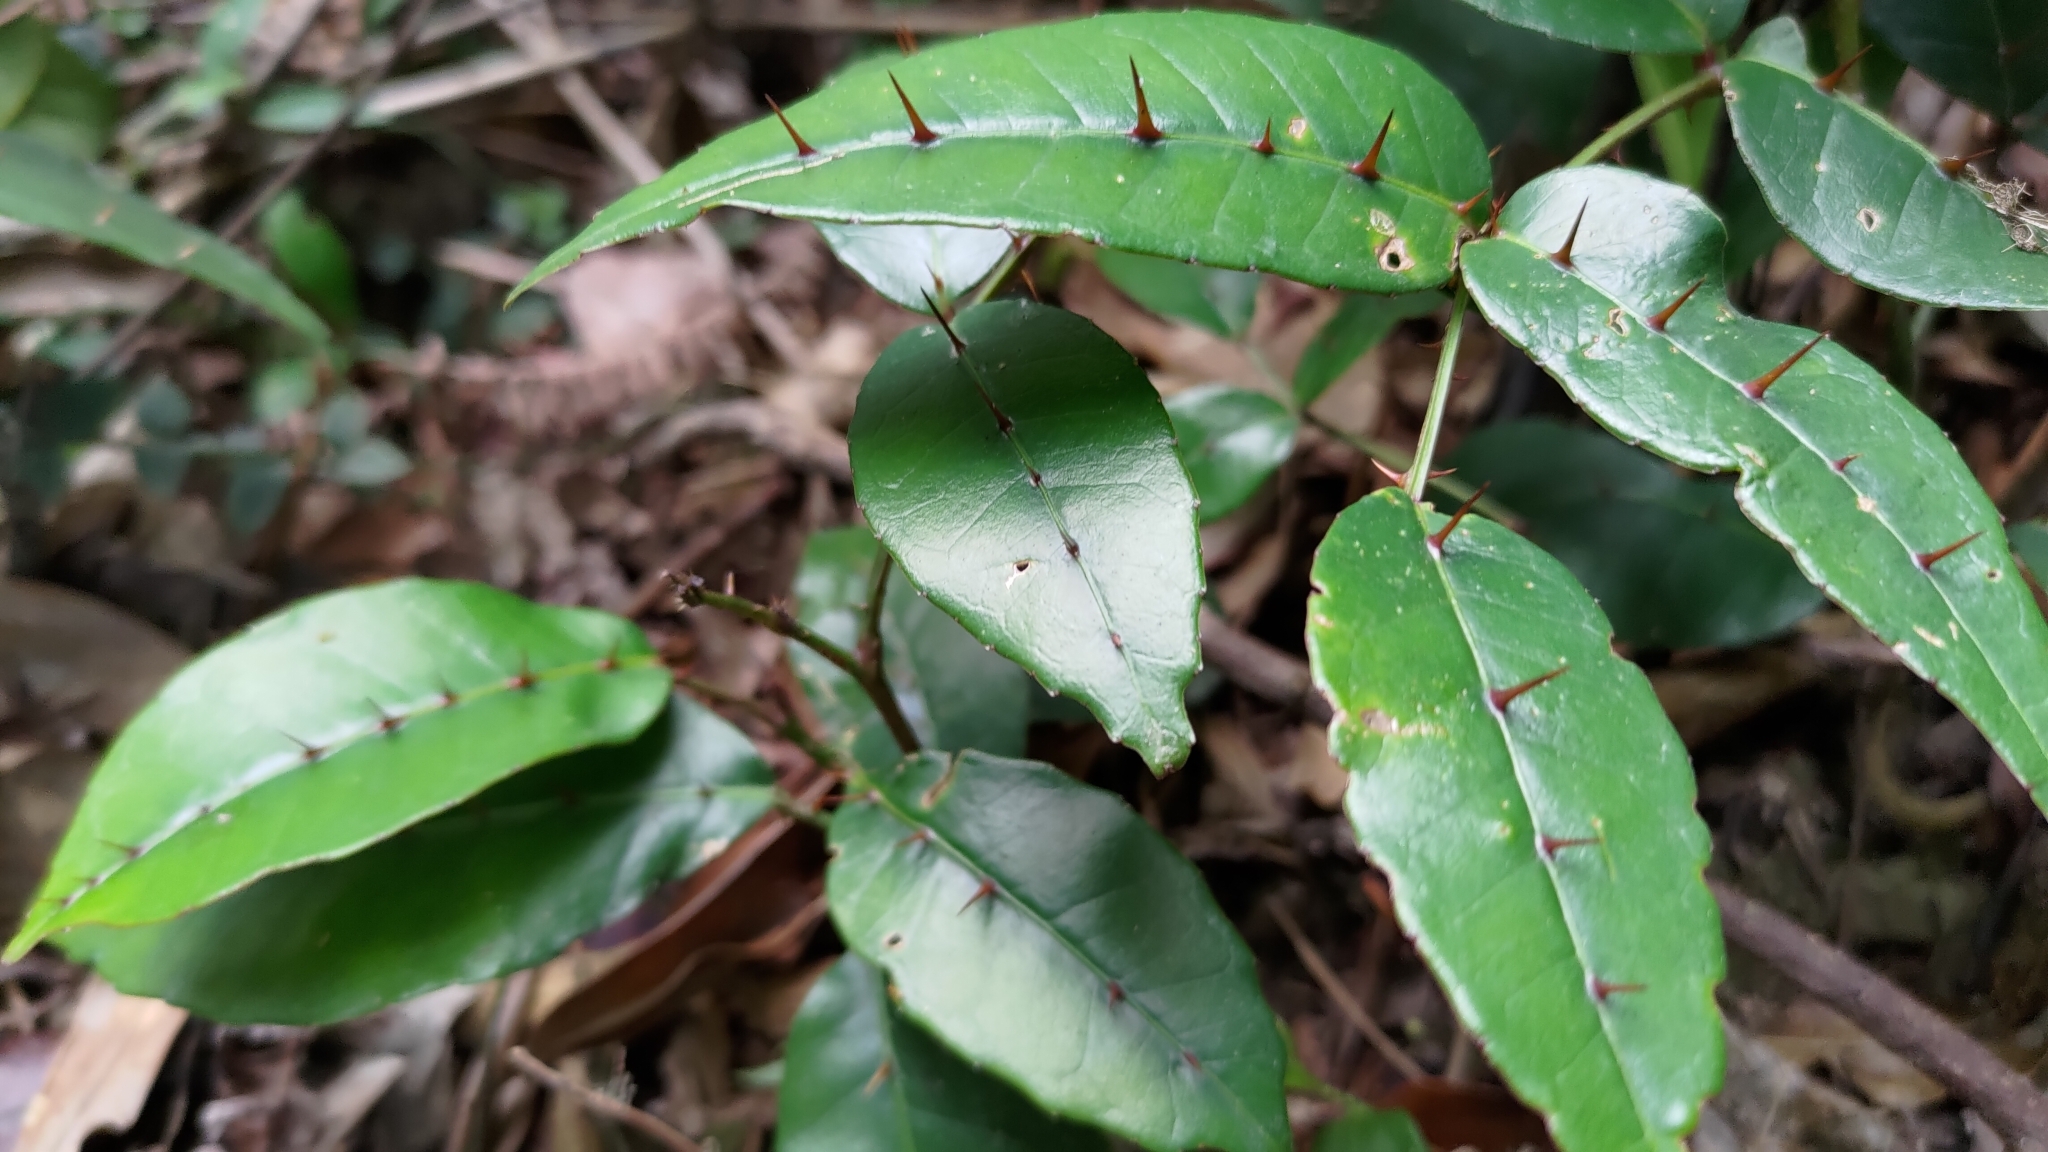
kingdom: Plantae
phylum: Tracheophyta
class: Magnoliopsida
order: Sapindales
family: Rutaceae
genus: Zanthoxylum
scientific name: Zanthoxylum nitidum
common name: Shiny-leaf prickly-ash
